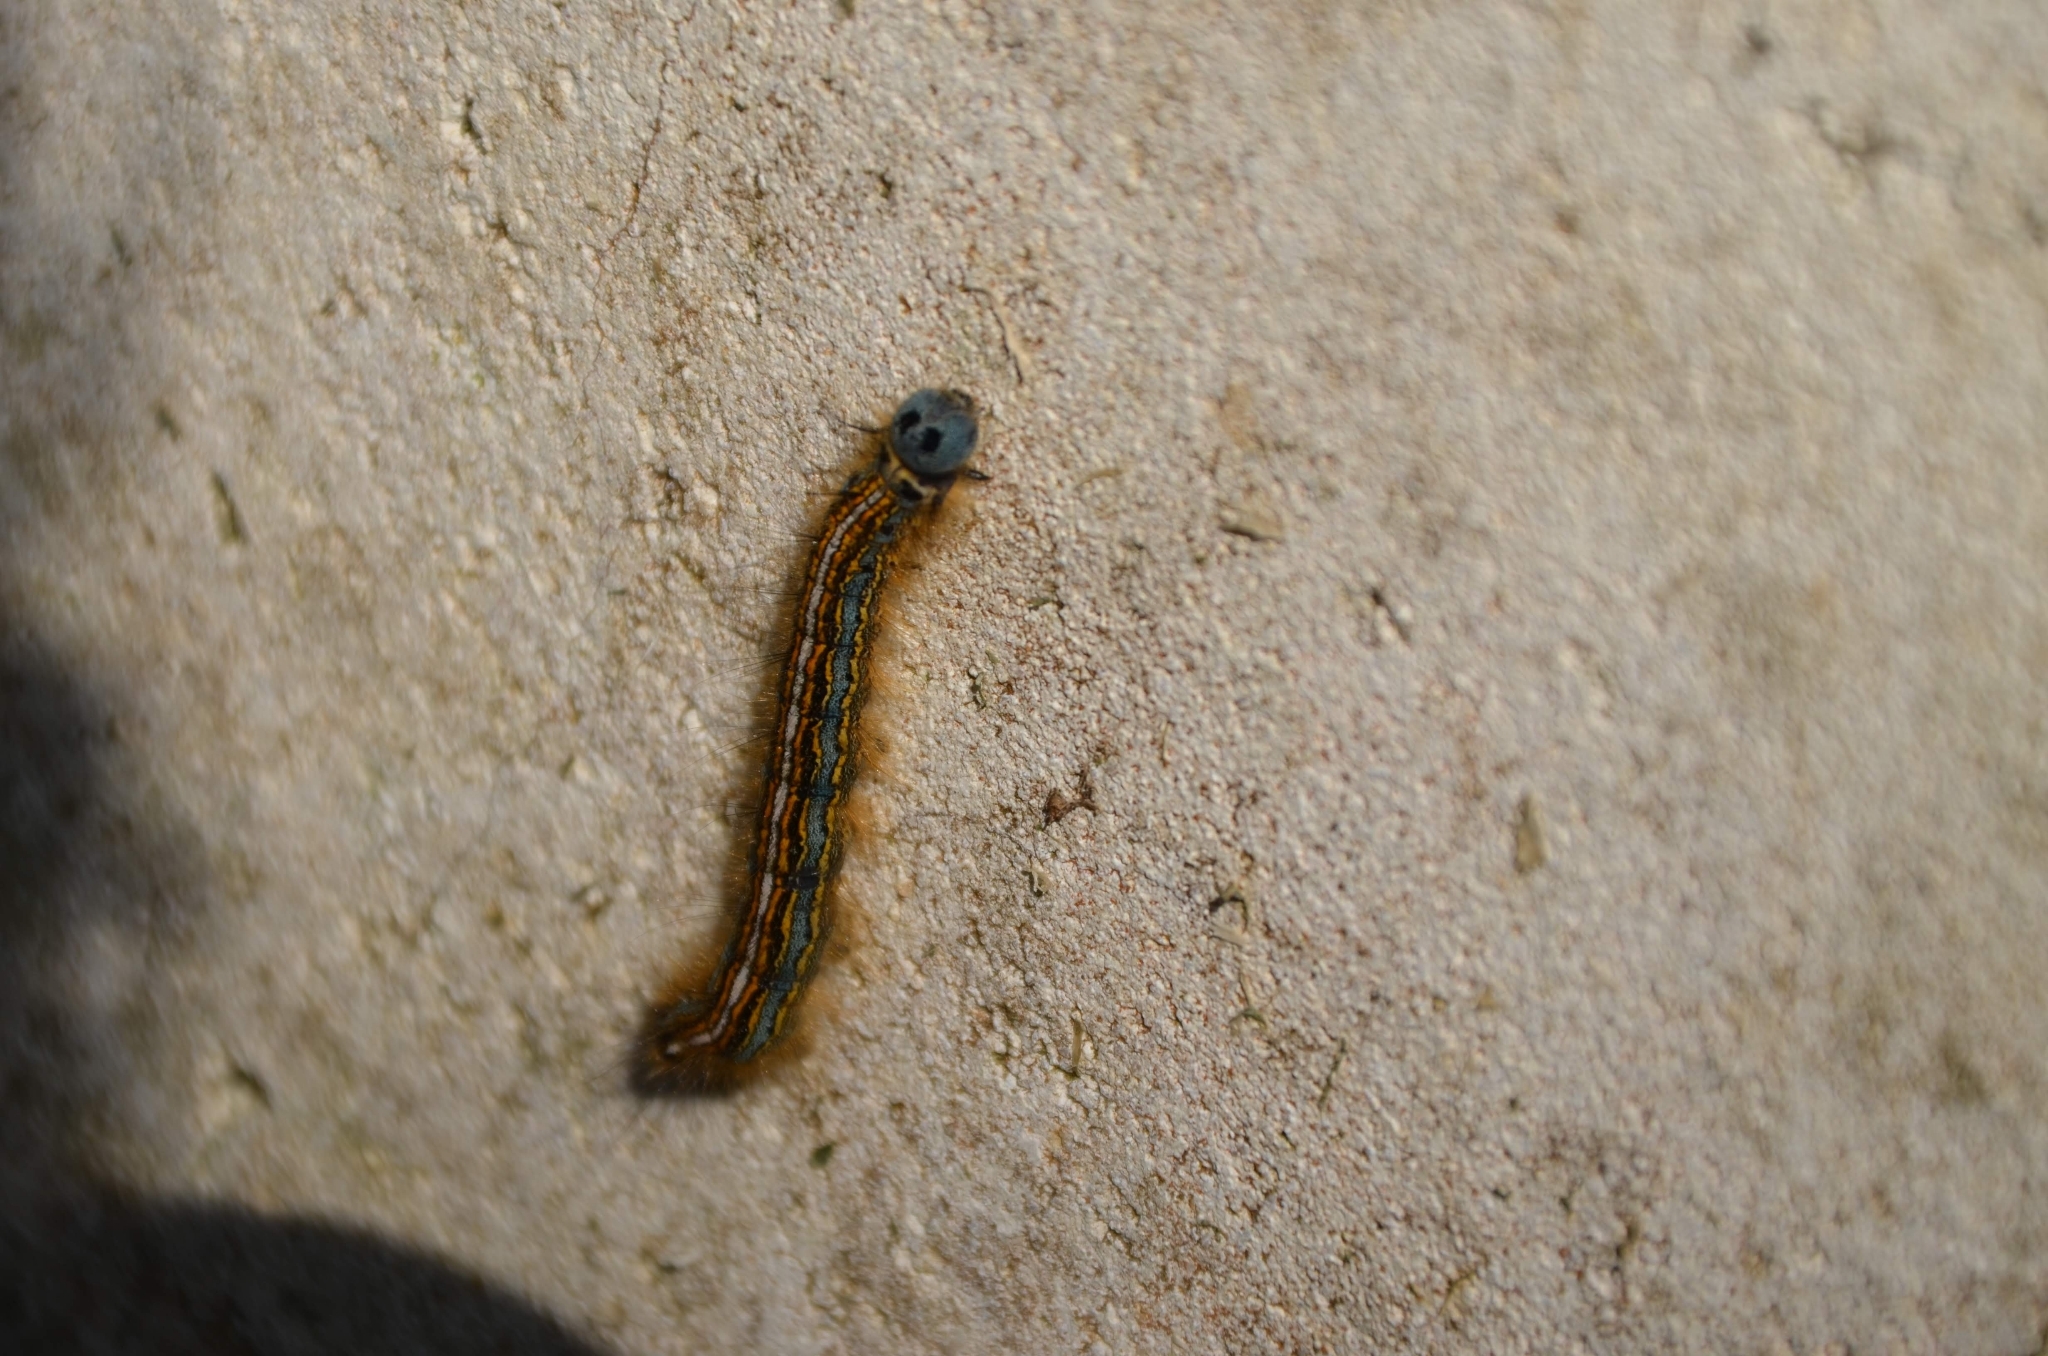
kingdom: Animalia
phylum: Arthropoda
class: Insecta
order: Lepidoptera
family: Lasiocampidae
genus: Malacosoma
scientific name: Malacosoma neustria
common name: The lackey
